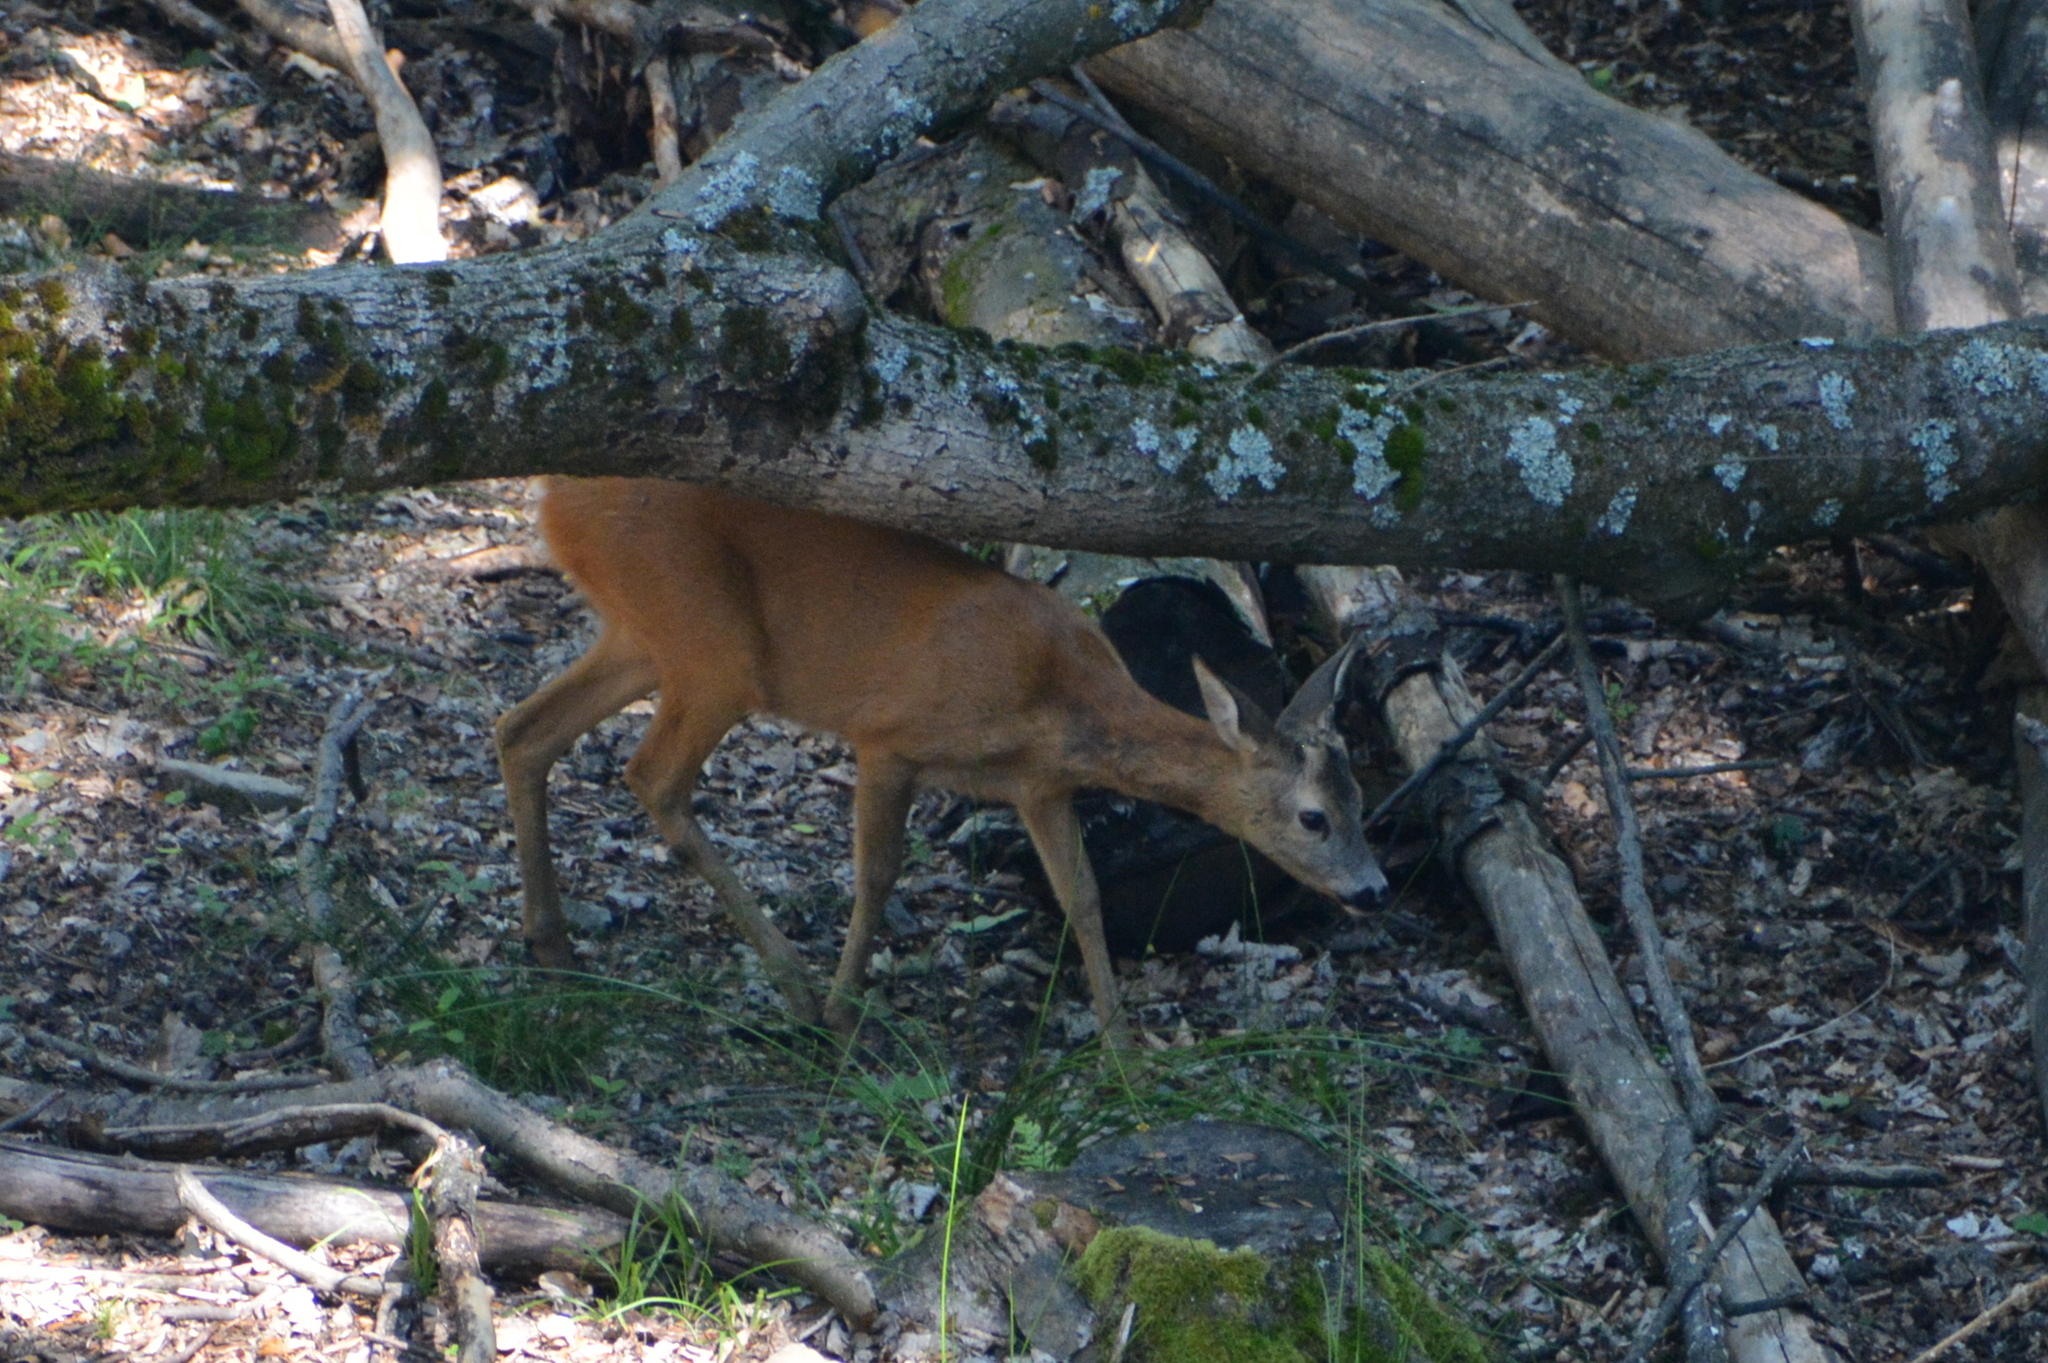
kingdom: Animalia
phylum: Chordata
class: Mammalia
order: Artiodactyla
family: Cervidae
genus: Capreolus
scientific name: Capreolus capreolus
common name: Western roe deer
